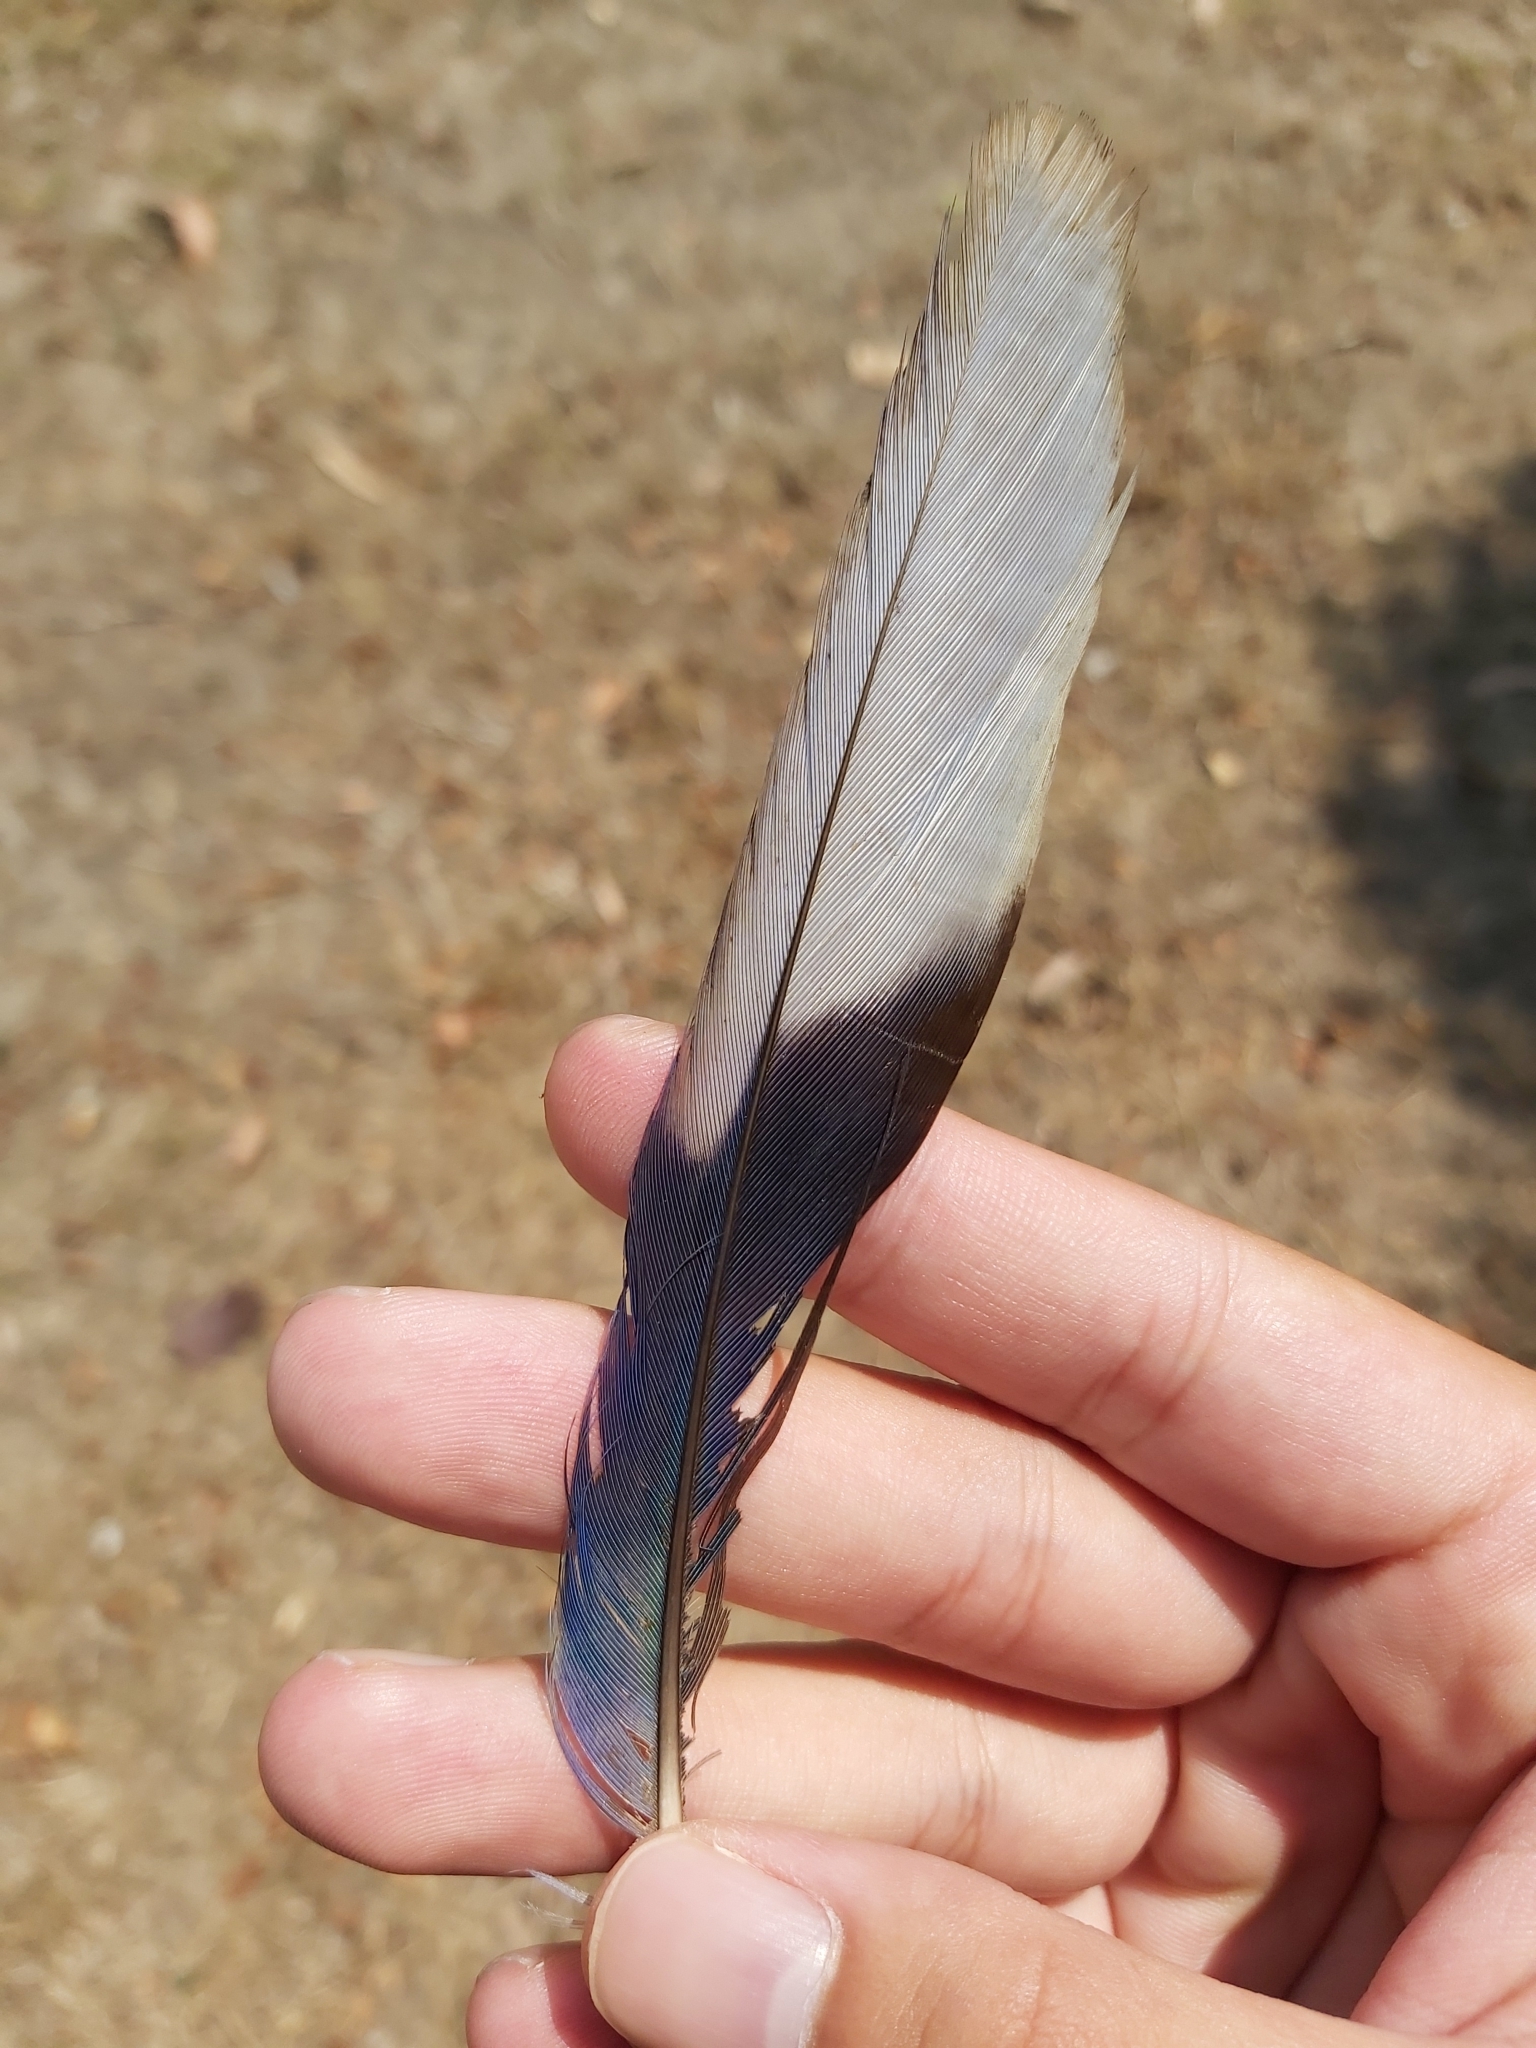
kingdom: Animalia
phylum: Chordata
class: Aves
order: Psittaciformes
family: Psittacidae
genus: Platycercus
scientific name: Platycercus eximius
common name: Eastern rosella
